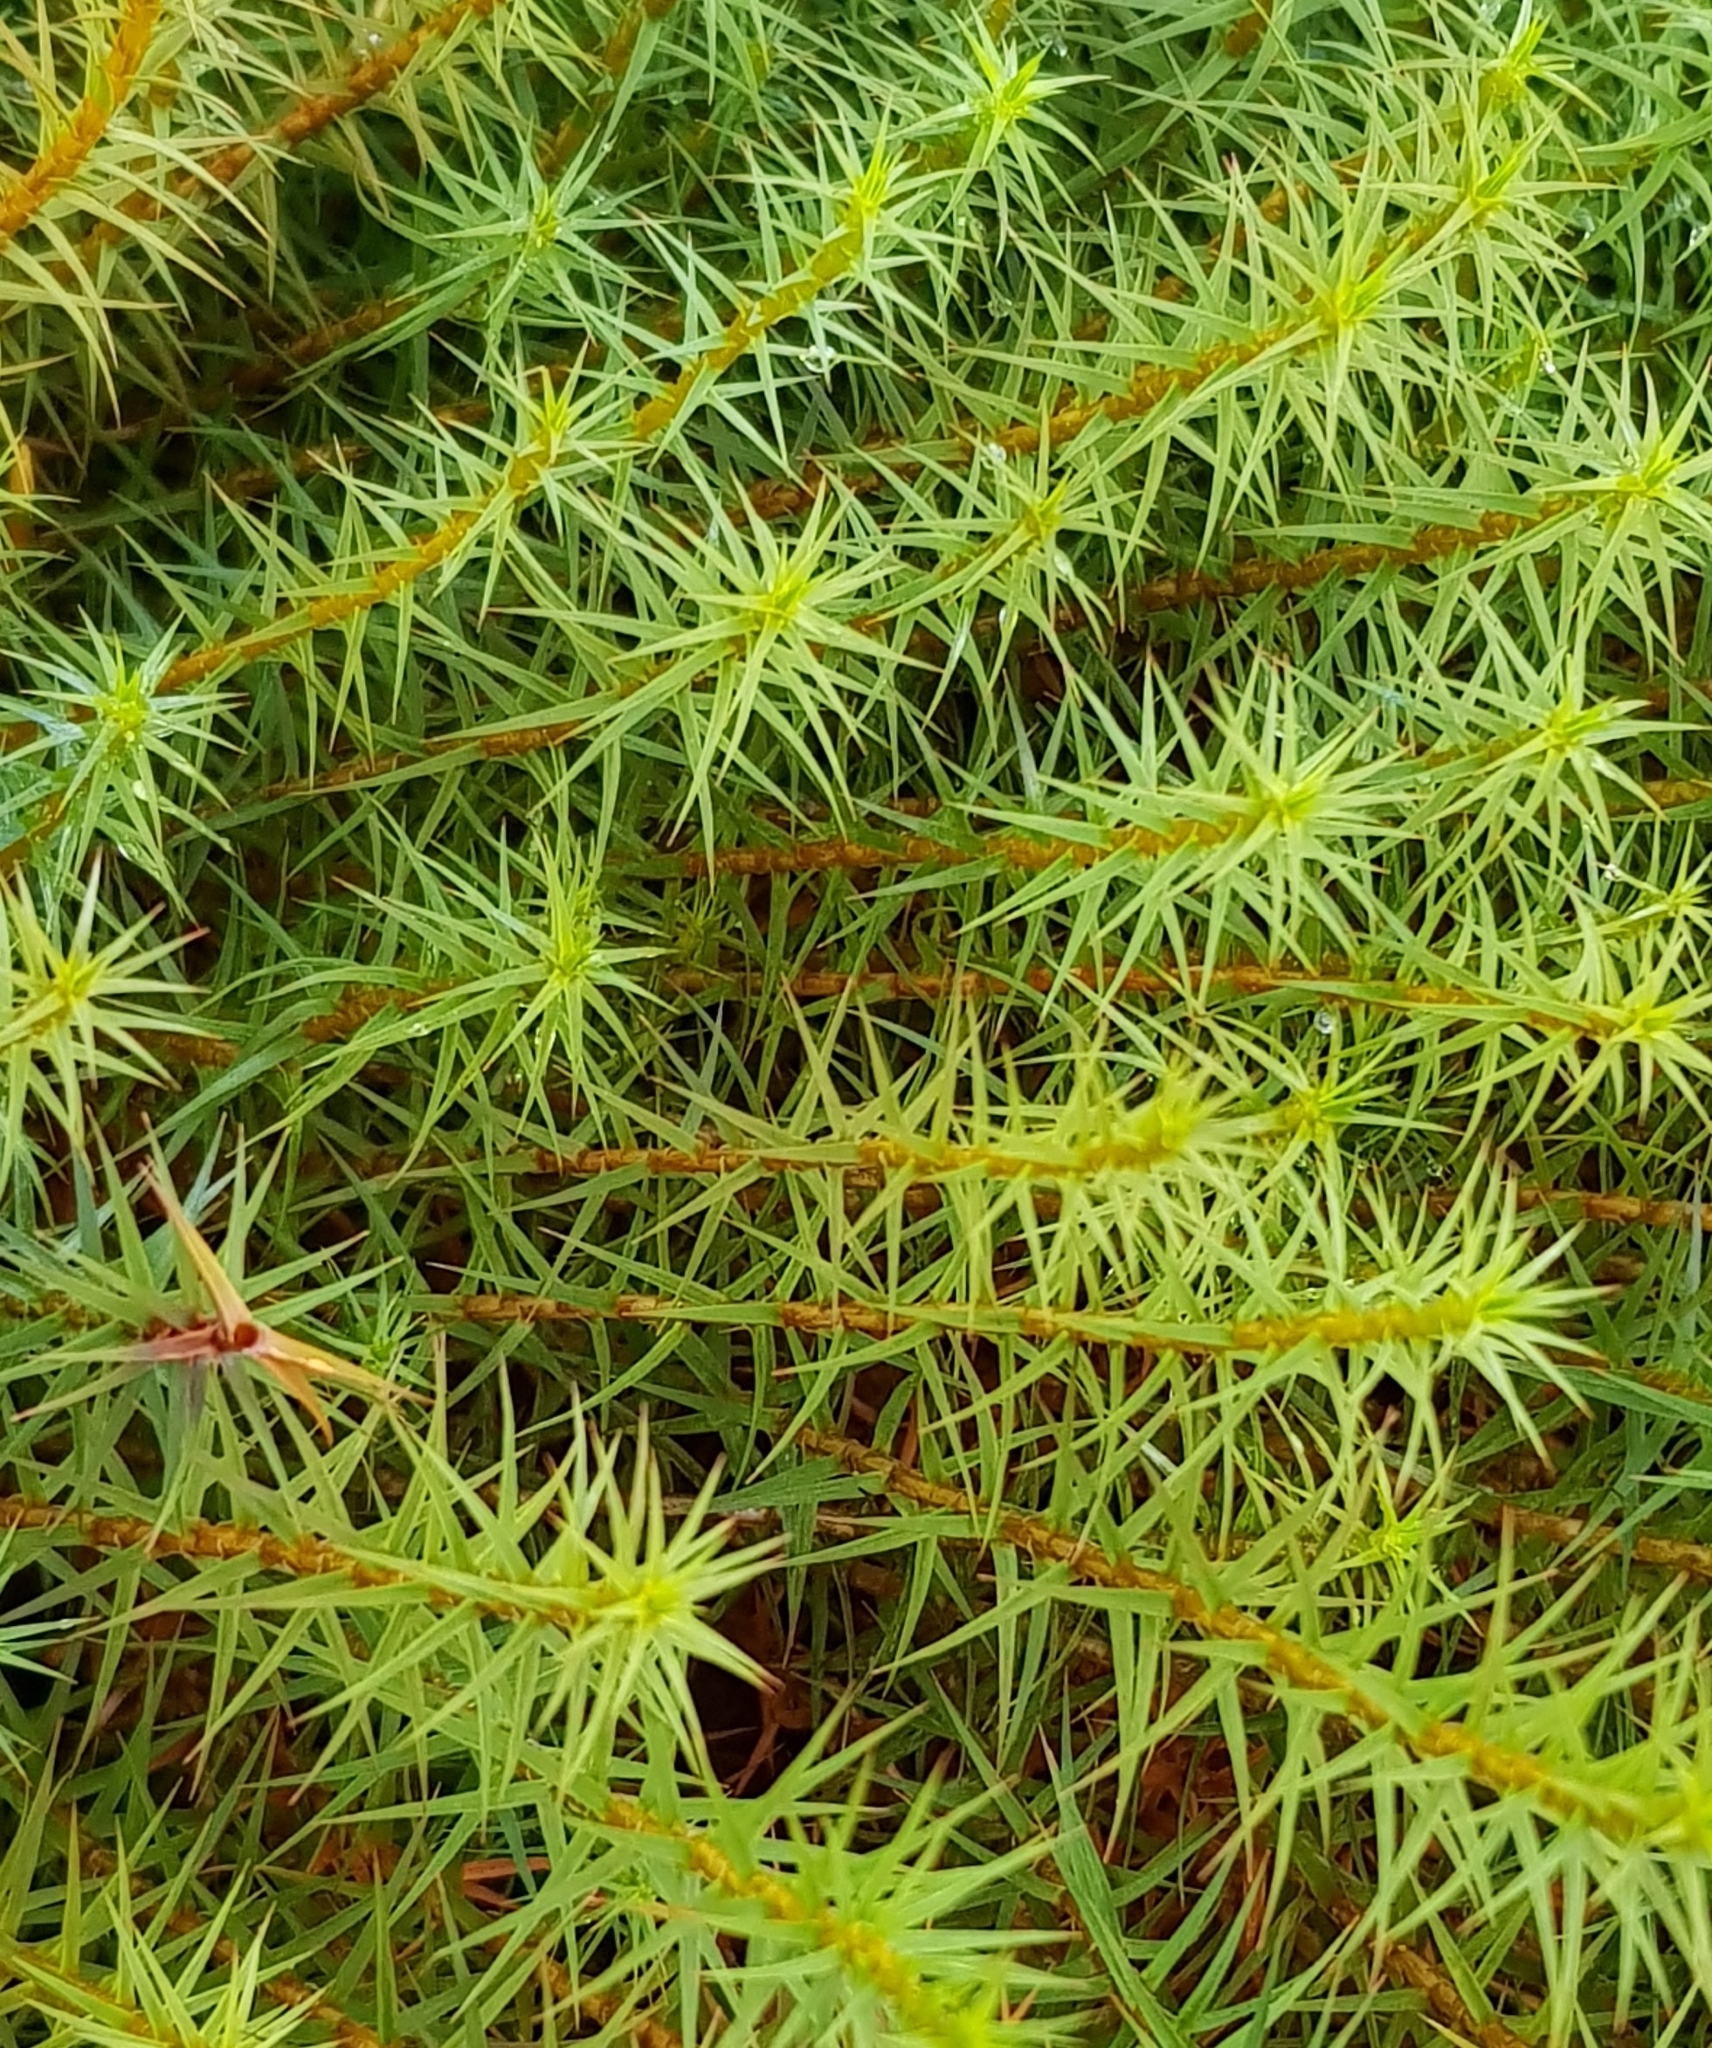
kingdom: Plantae
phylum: Bryophyta
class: Polytrichopsida
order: Polytrichales
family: Polytrichaceae
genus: Polytrichum
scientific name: Polytrichum commune
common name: Common haircap
